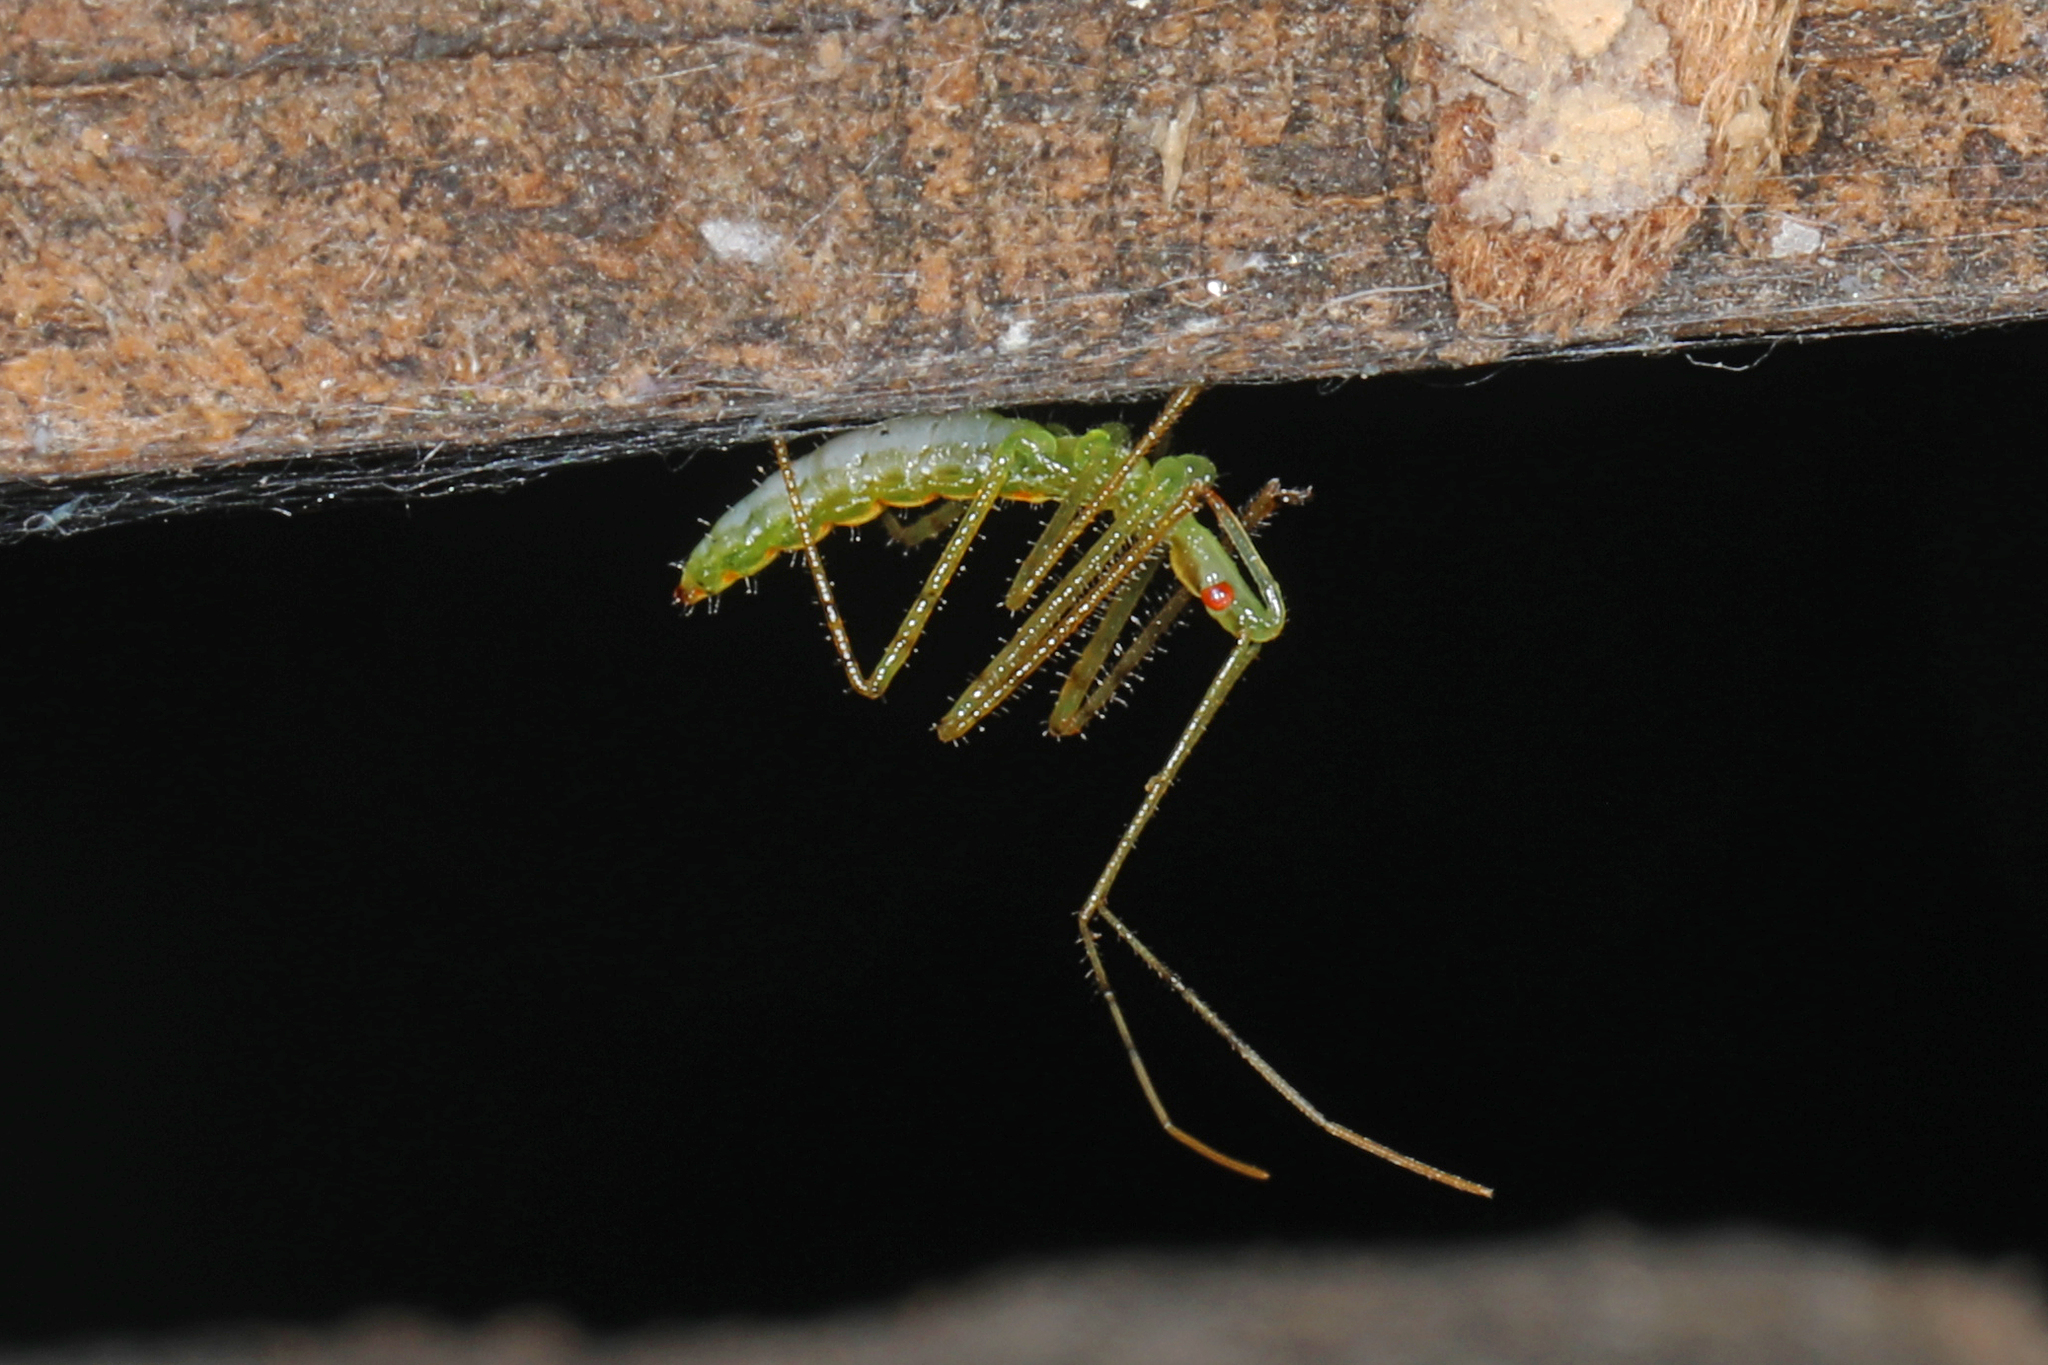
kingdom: Animalia
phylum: Arthropoda
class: Insecta
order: Hemiptera
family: Reduviidae
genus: Zelus
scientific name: Zelus luridus
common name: Pale green assassin bug
